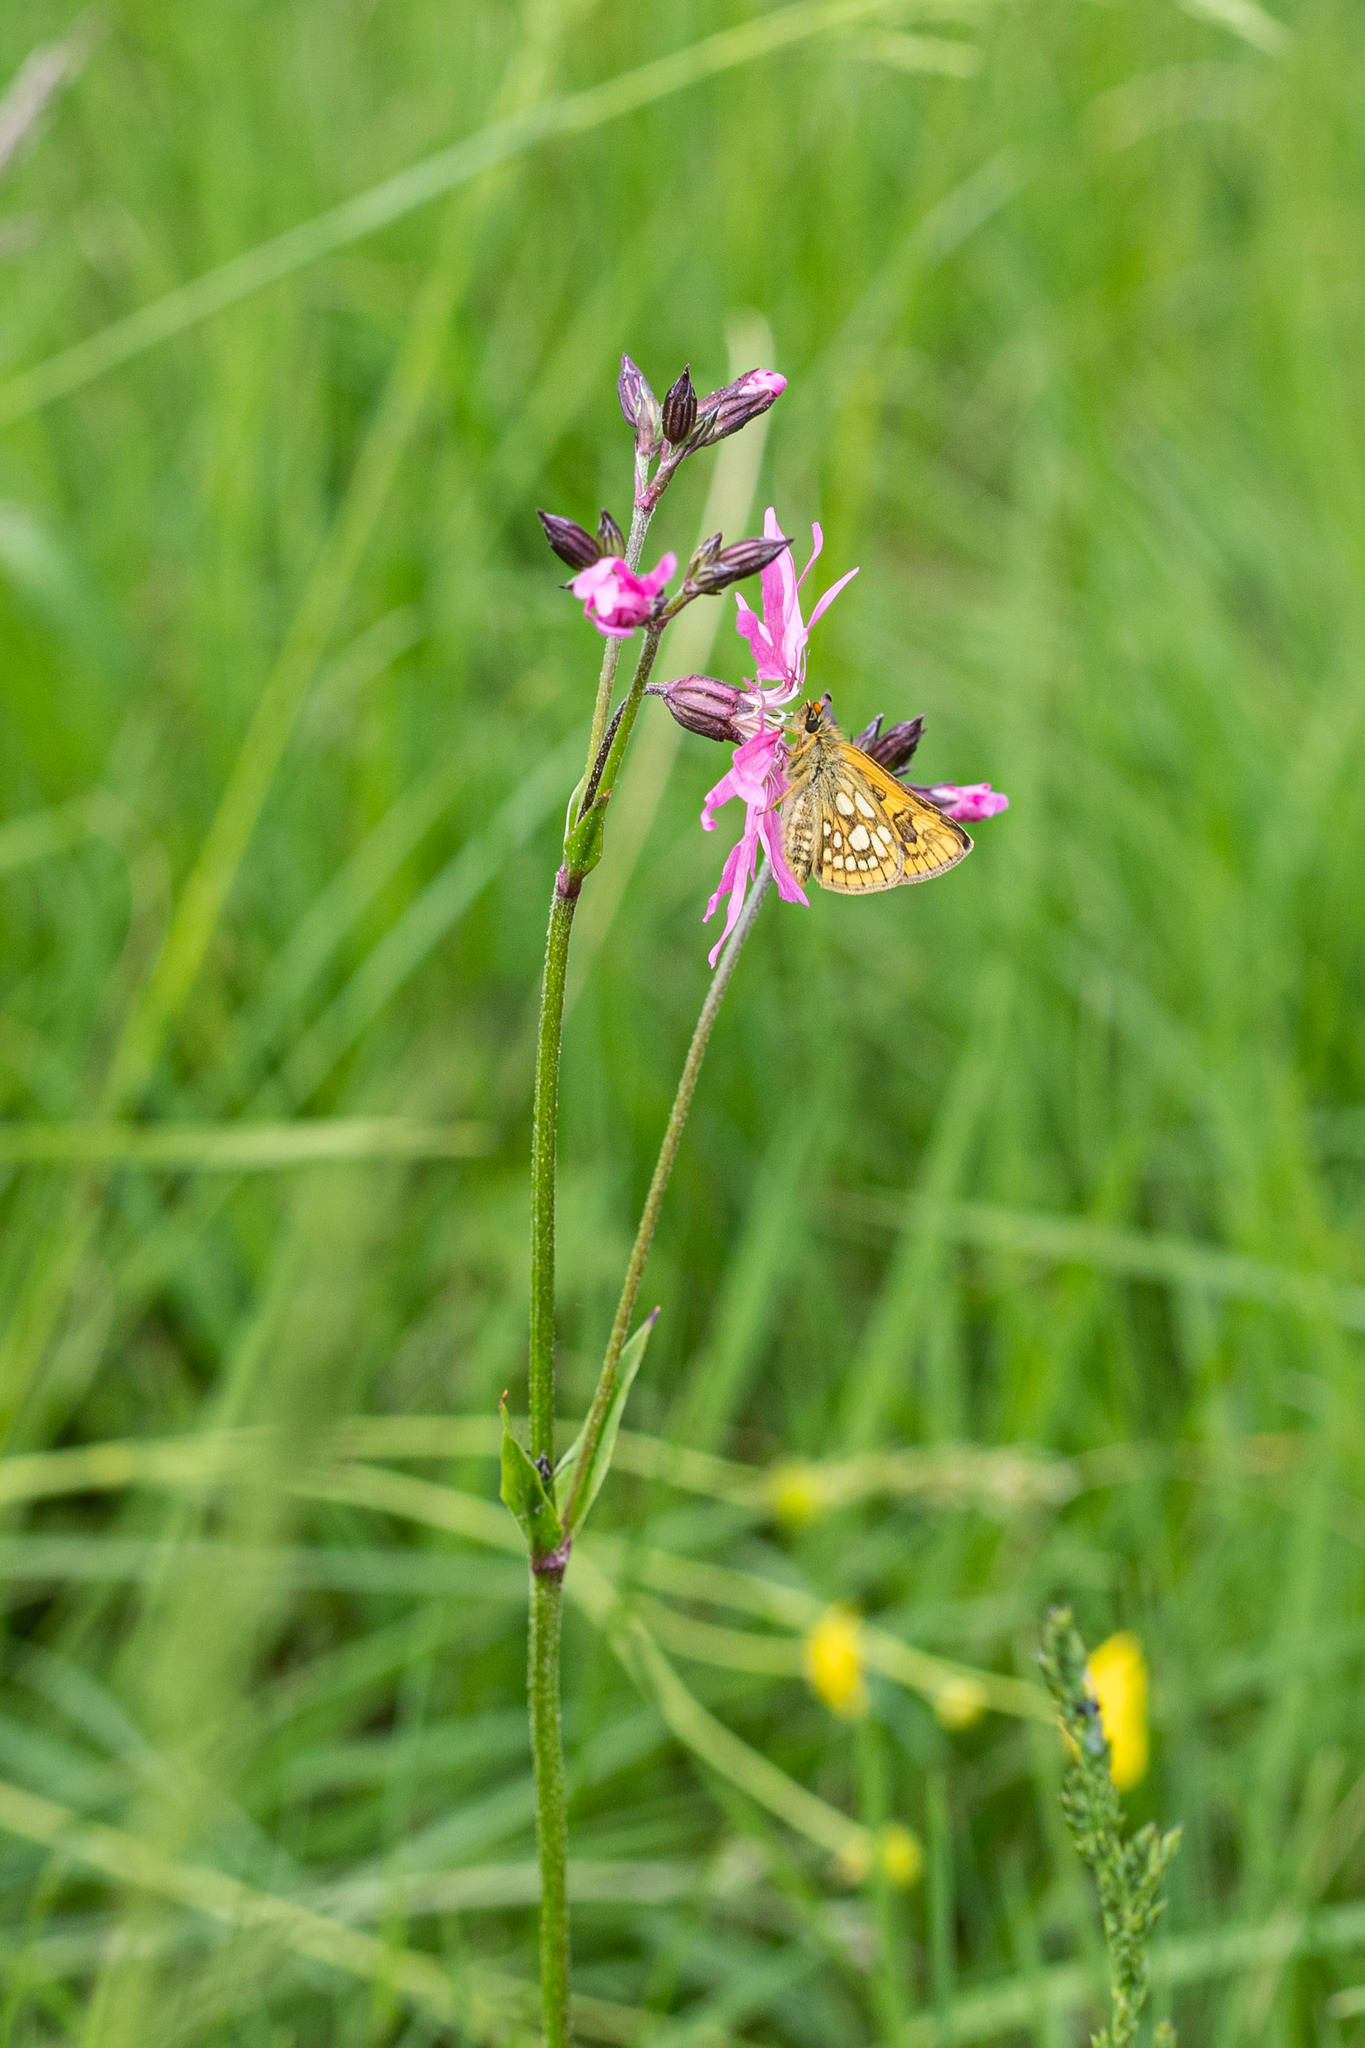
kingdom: Animalia
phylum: Arthropoda
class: Insecta
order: Lepidoptera
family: Hesperiidae
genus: Carterocephalus
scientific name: Carterocephalus palaemon
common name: Chequered skipper
